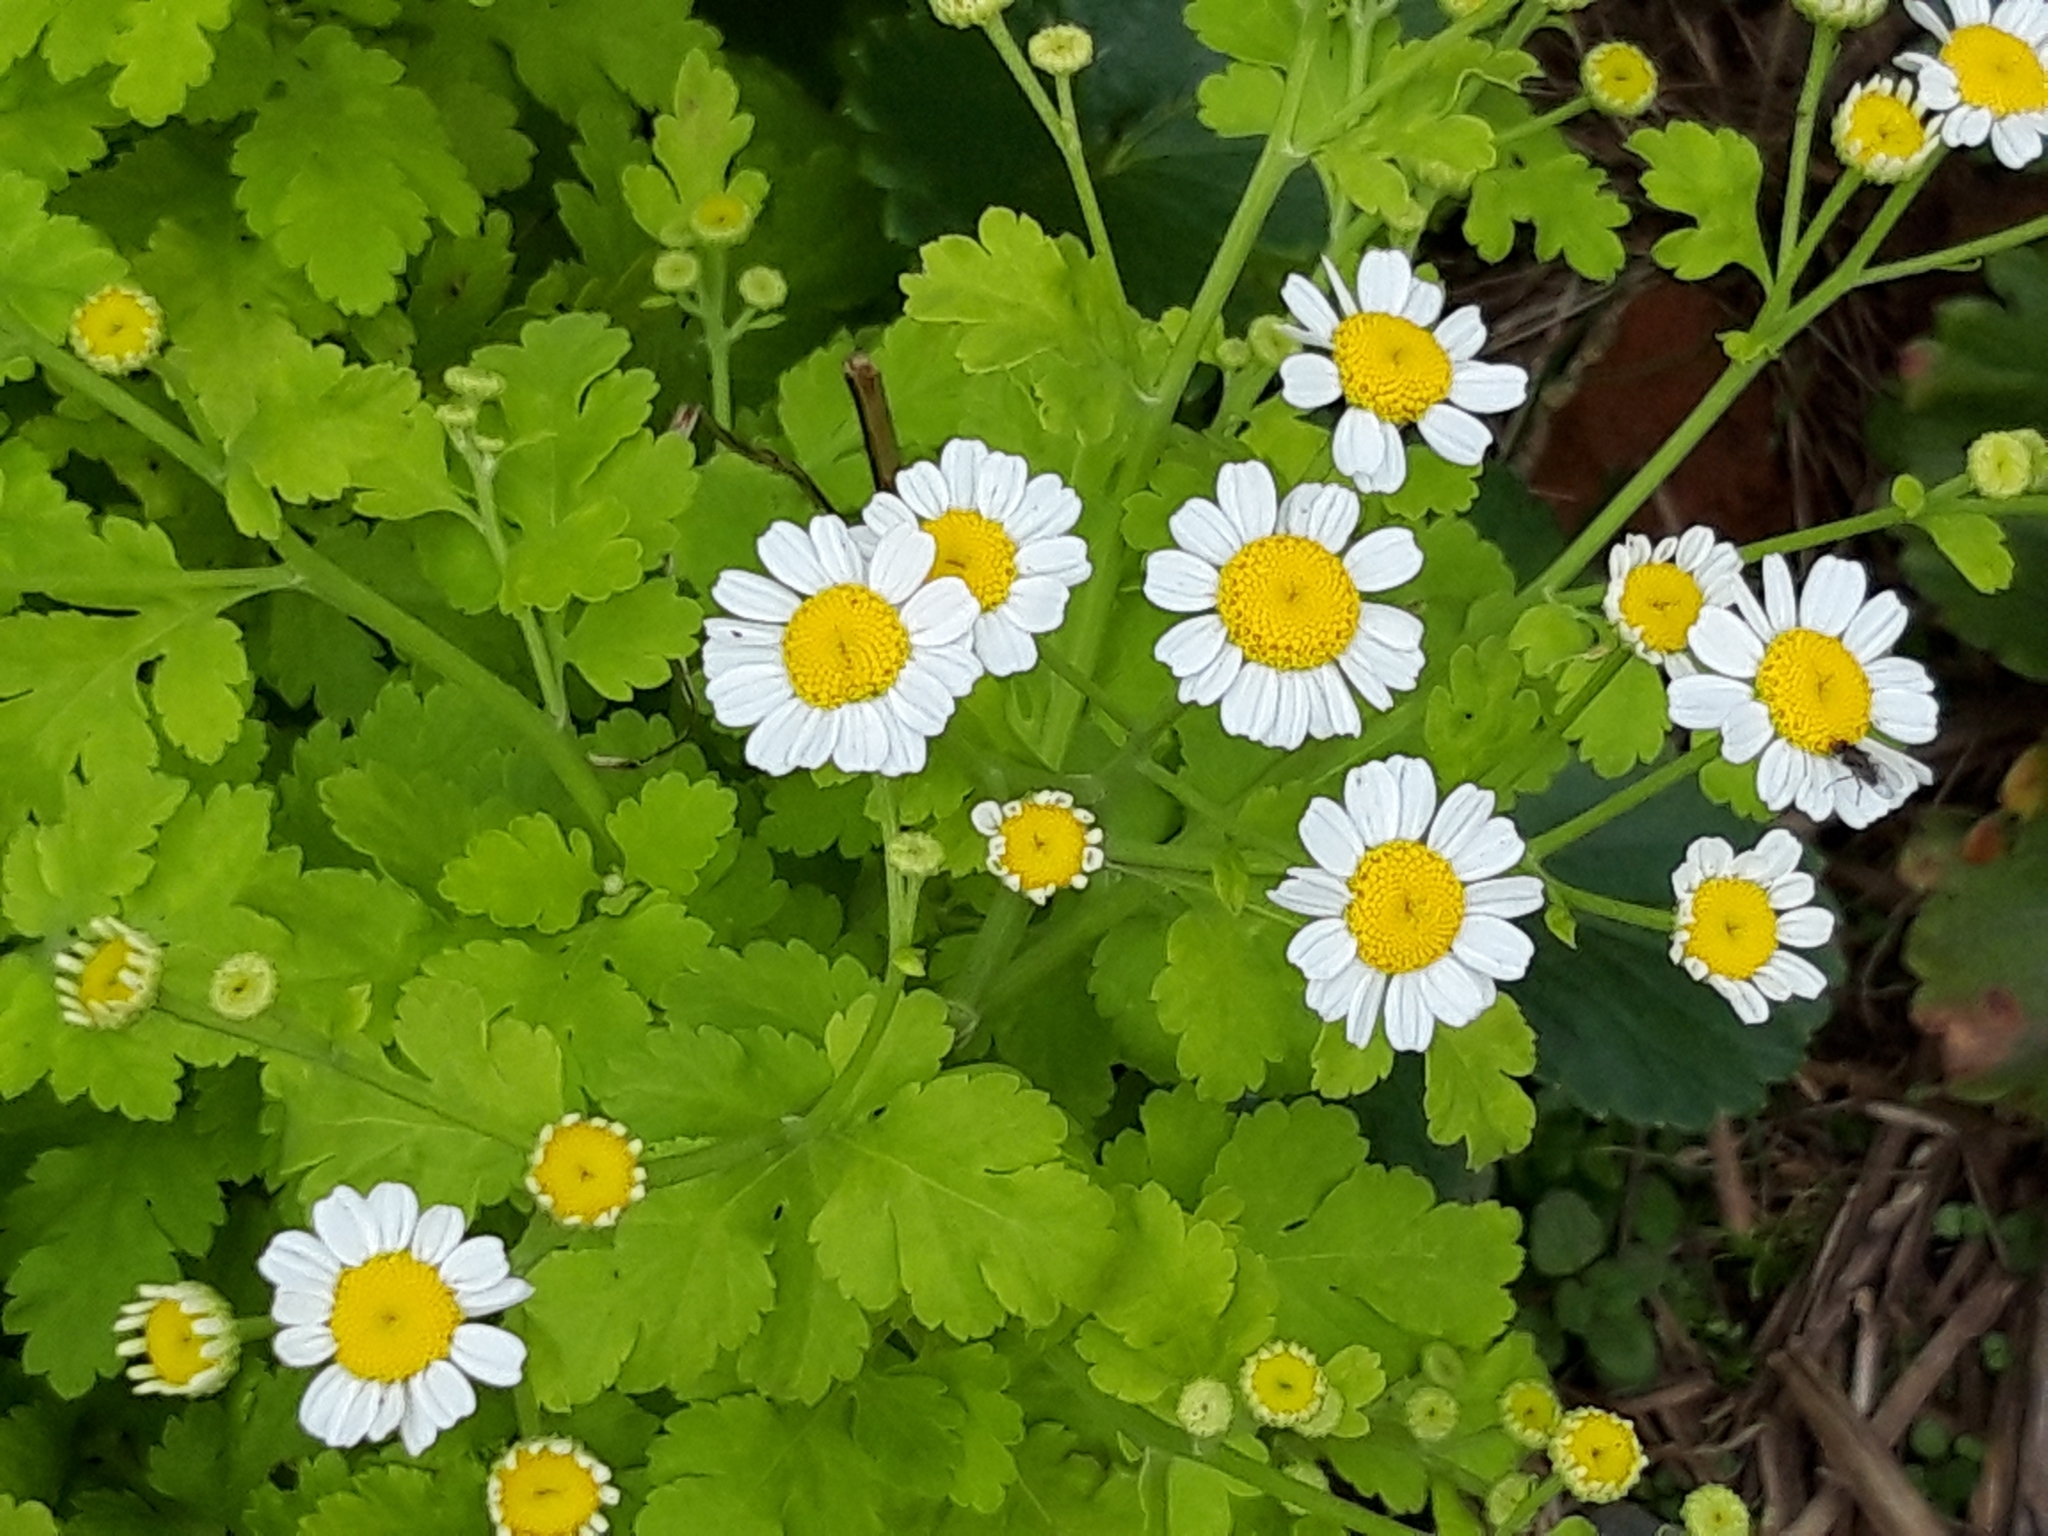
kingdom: Plantae
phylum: Tracheophyta
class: Magnoliopsida
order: Asterales
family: Asteraceae
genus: Tanacetum
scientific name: Tanacetum parthenium
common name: Feverfew
